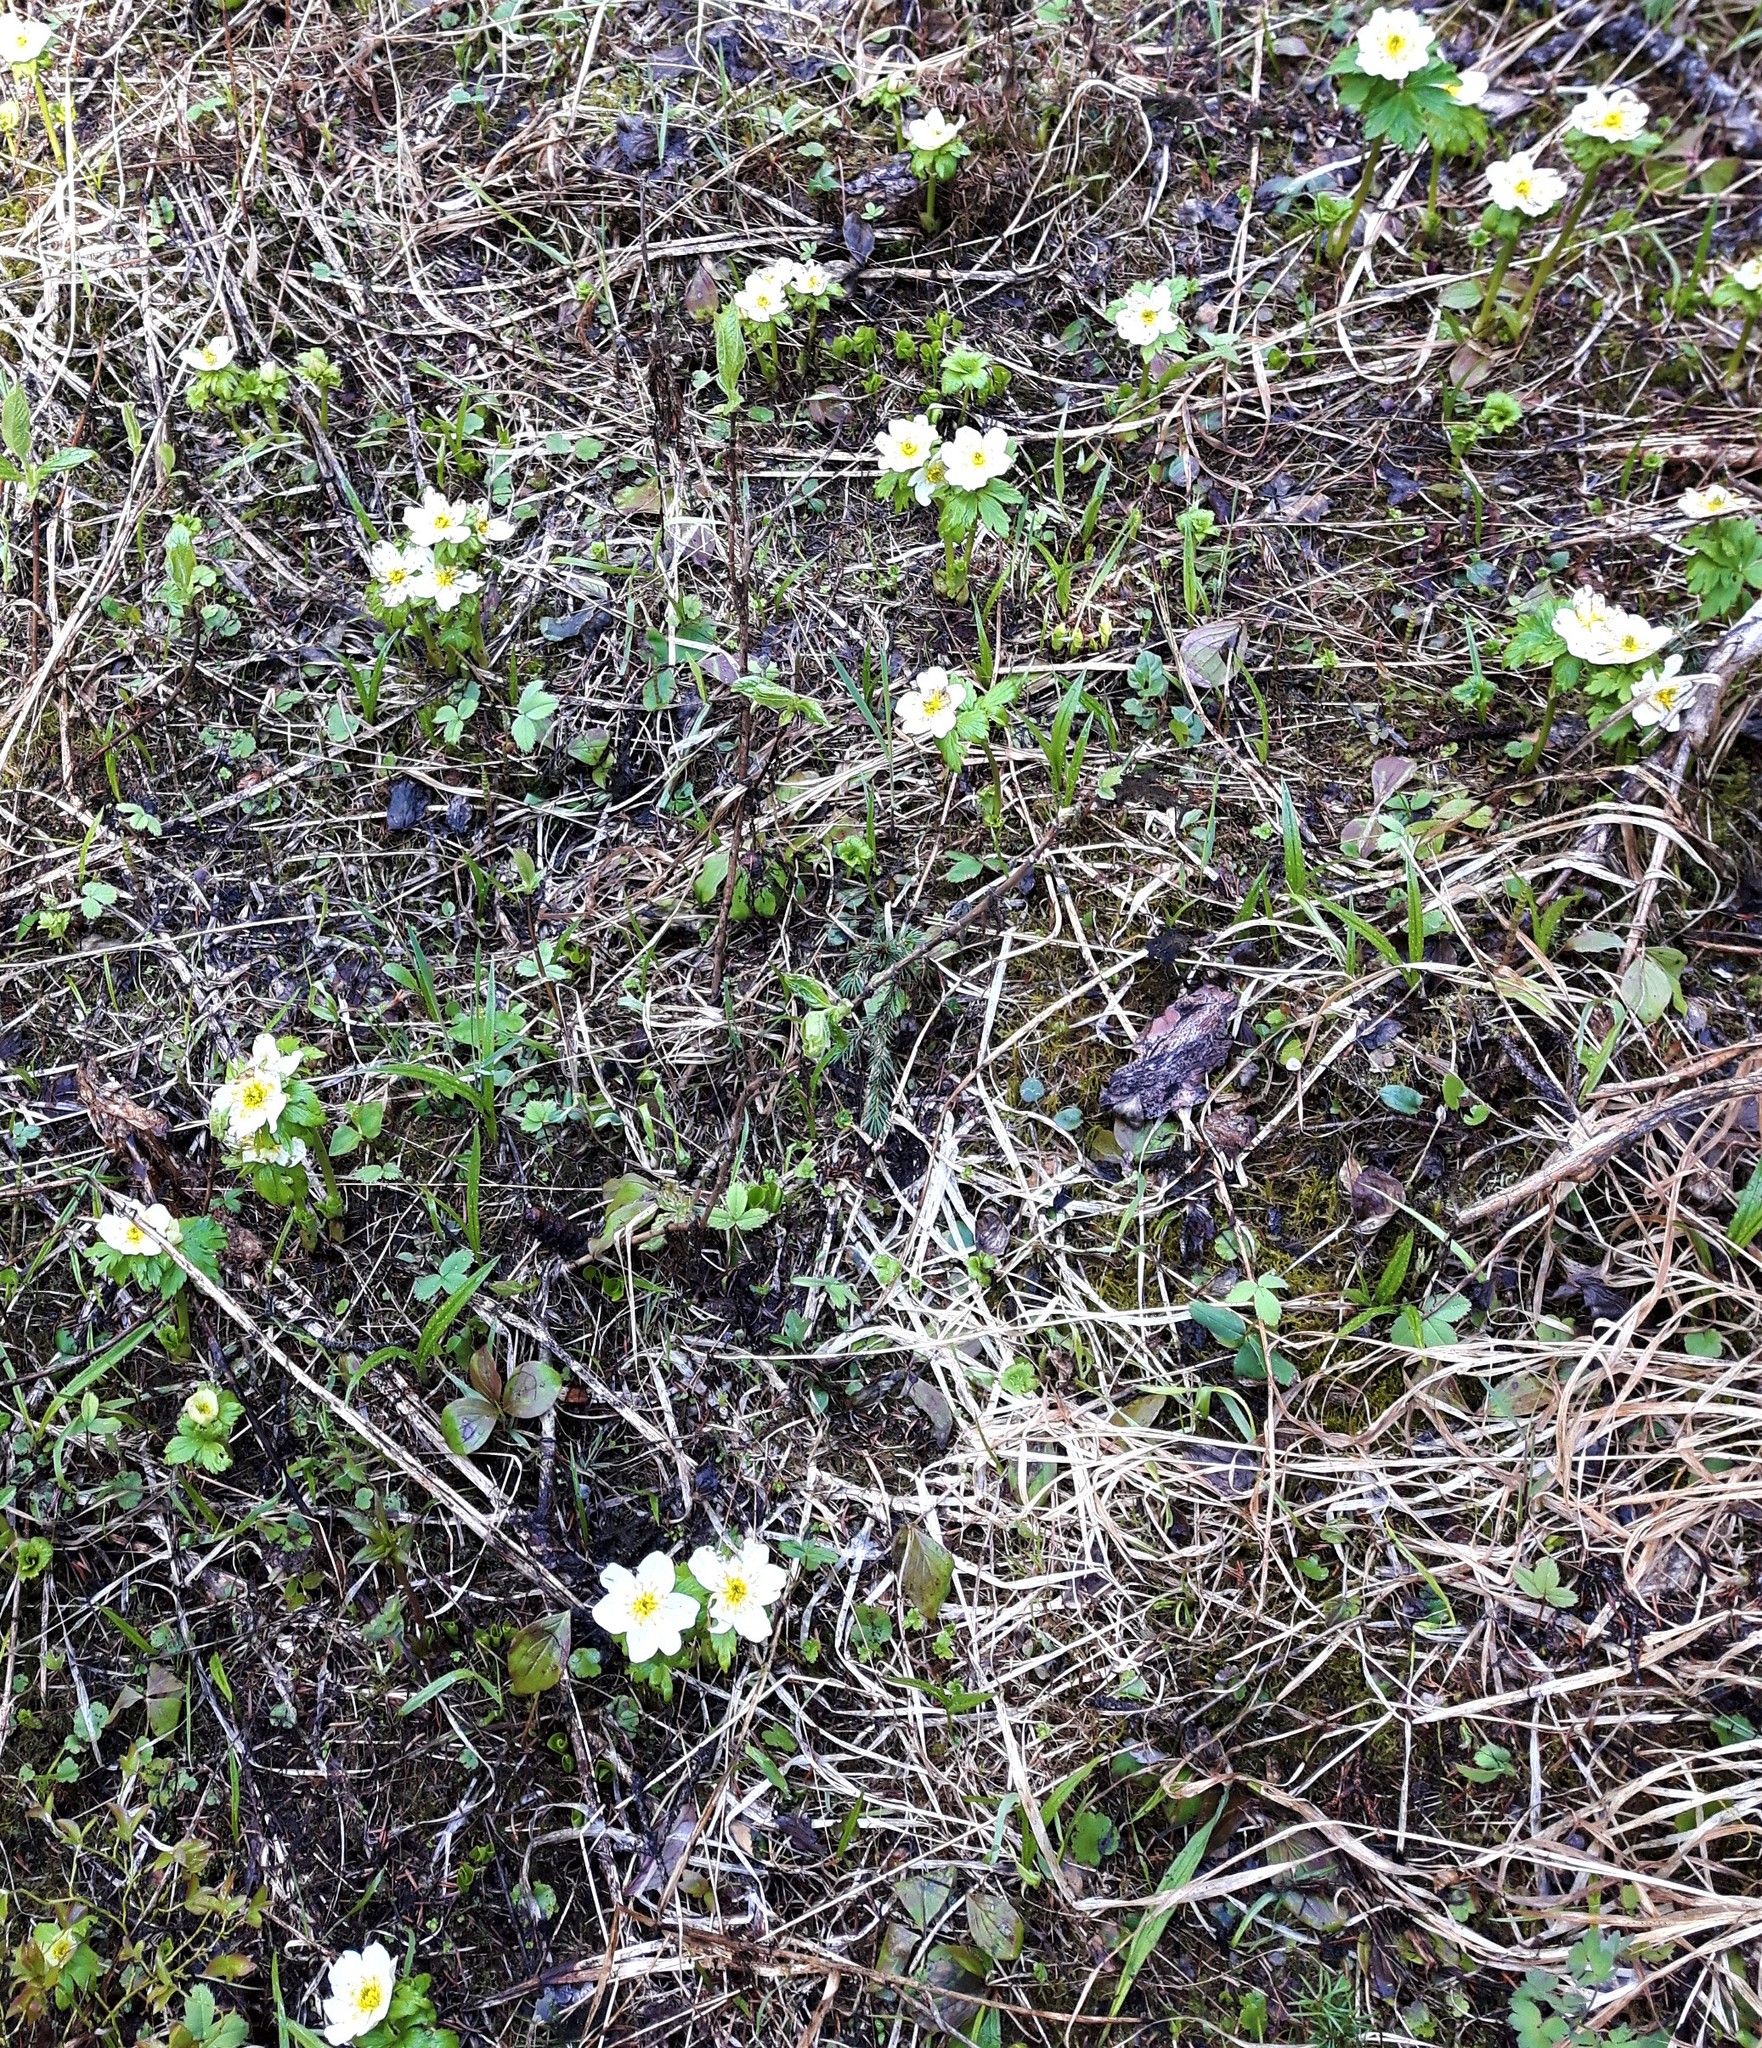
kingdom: Plantae
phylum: Tracheophyta
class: Magnoliopsida
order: Ranunculales
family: Ranunculaceae
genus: Trollius
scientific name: Trollius laxus
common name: American globeflower
